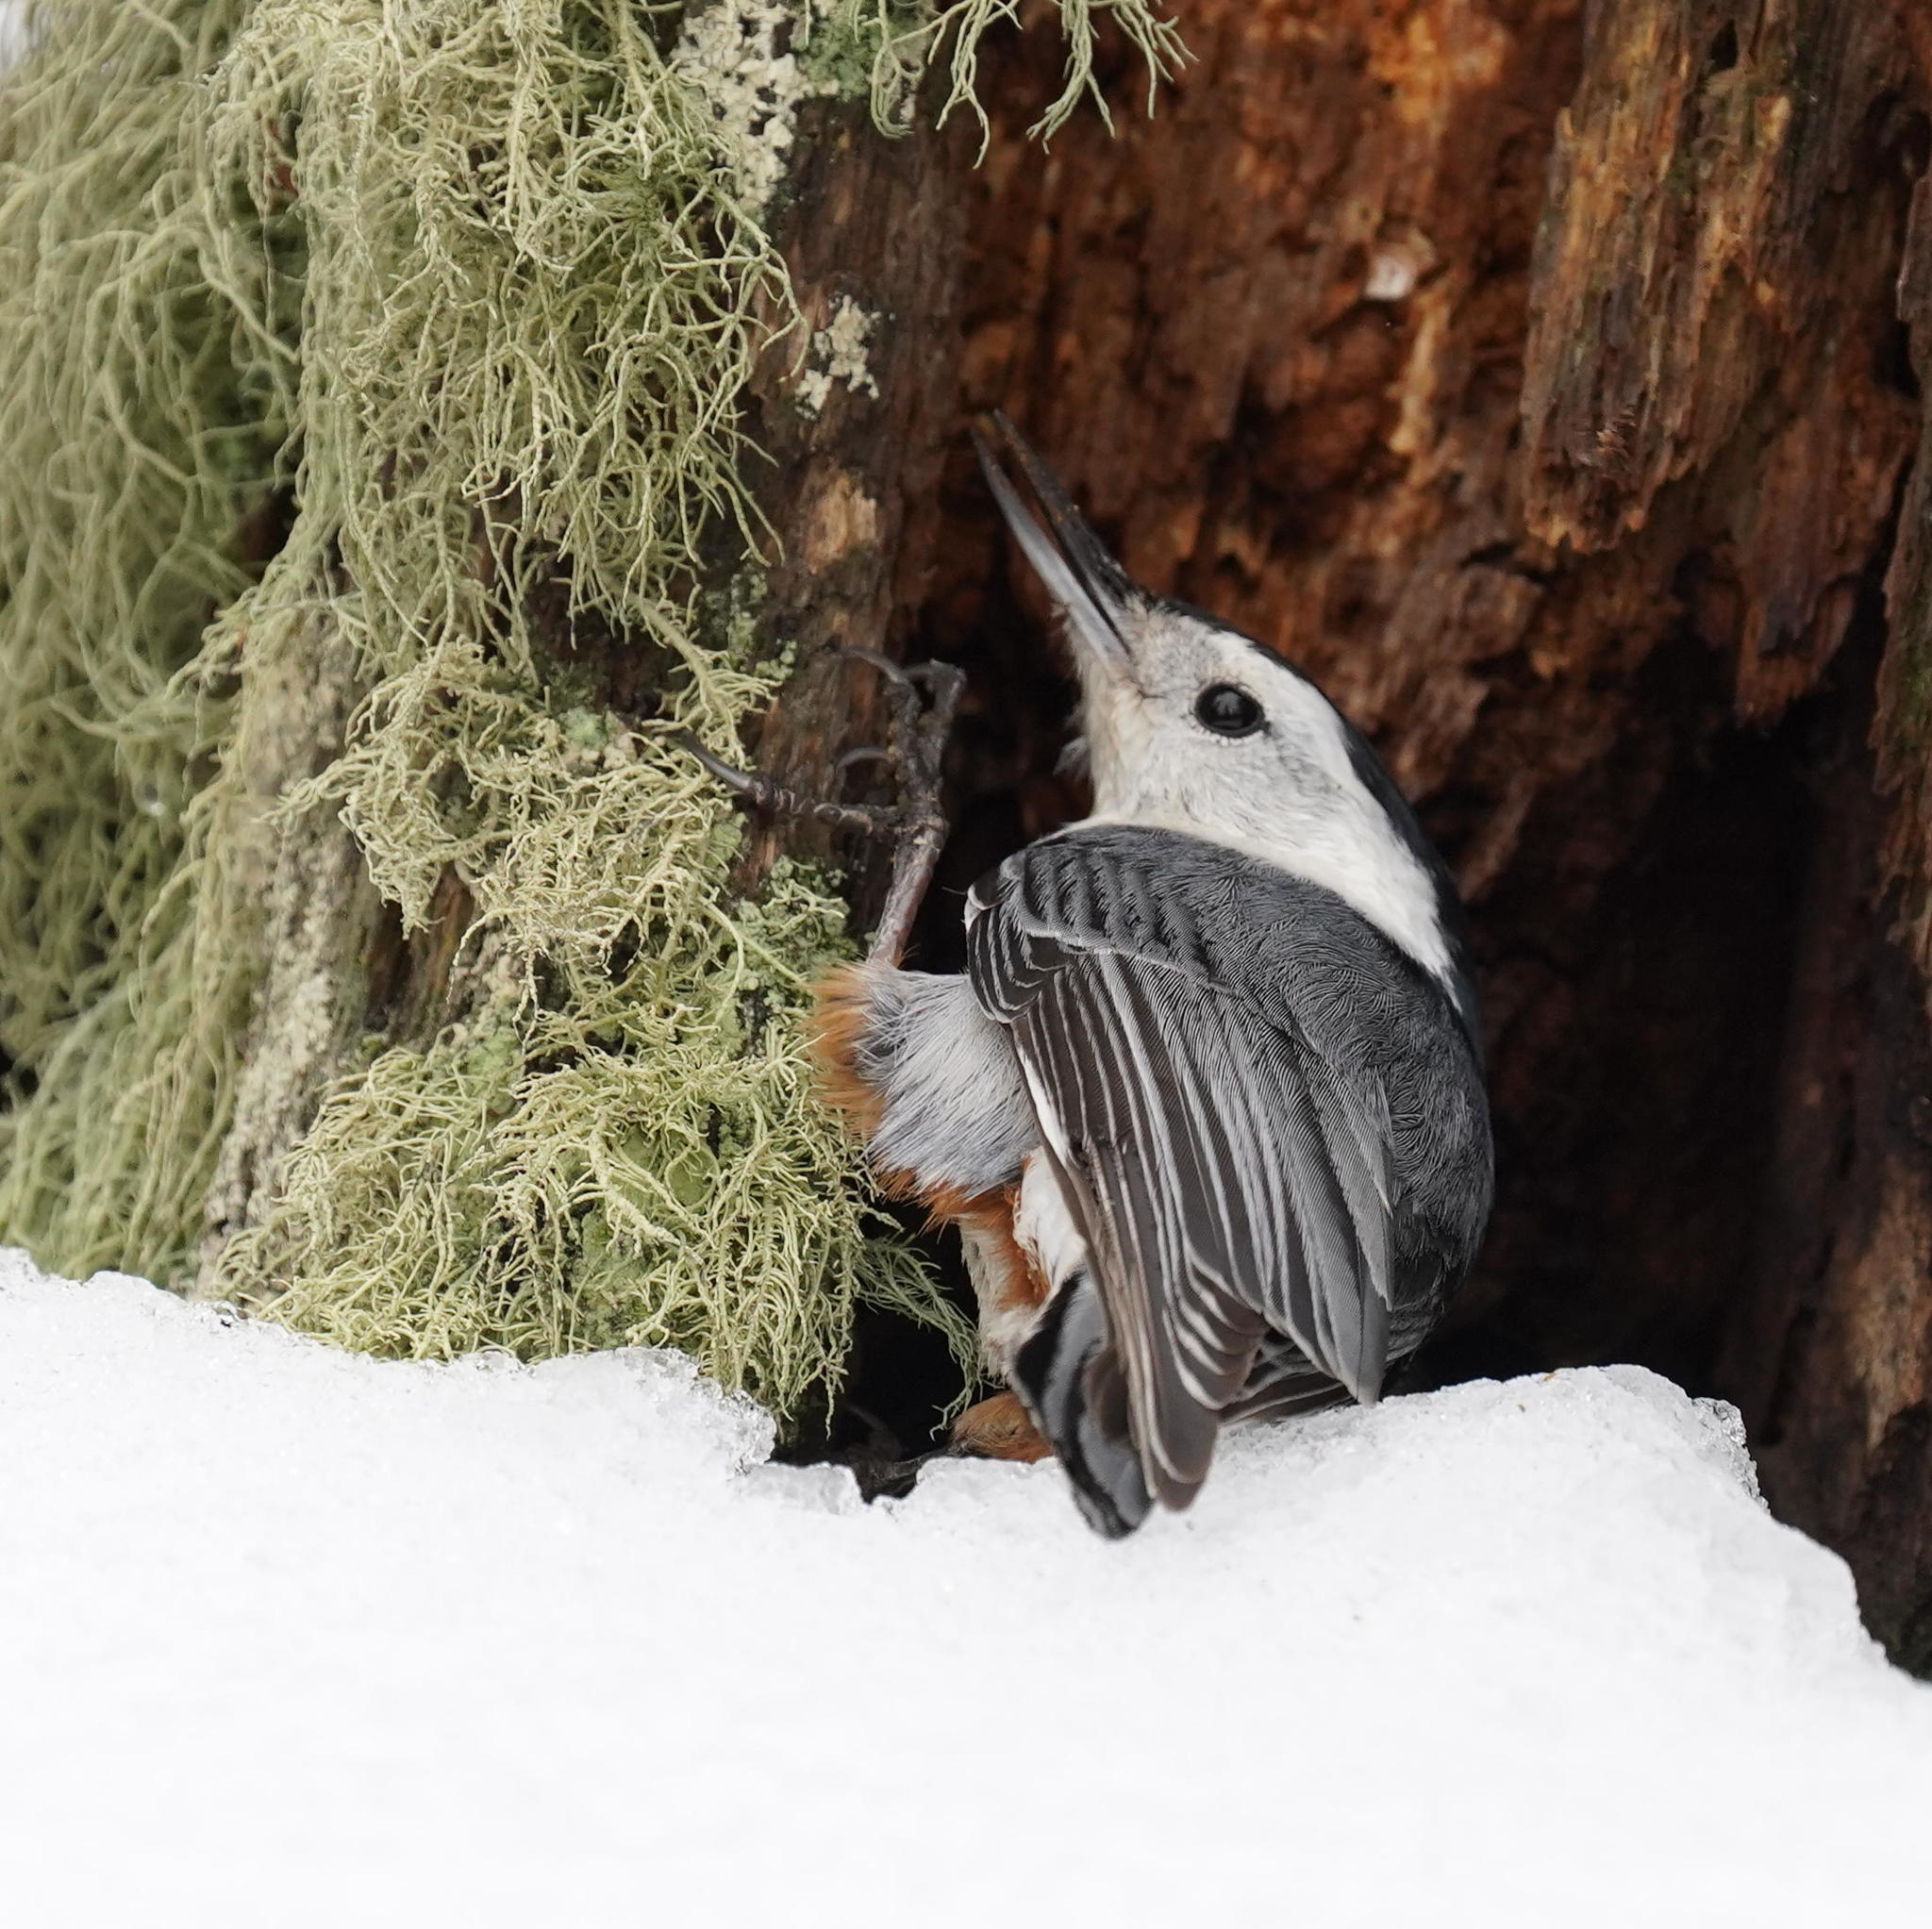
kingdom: Animalia
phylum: Chordata
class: Aves
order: Passeriformes
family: Sittidae
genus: Sitta
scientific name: Sitta carolinensis
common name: White-breasted nuthatch
